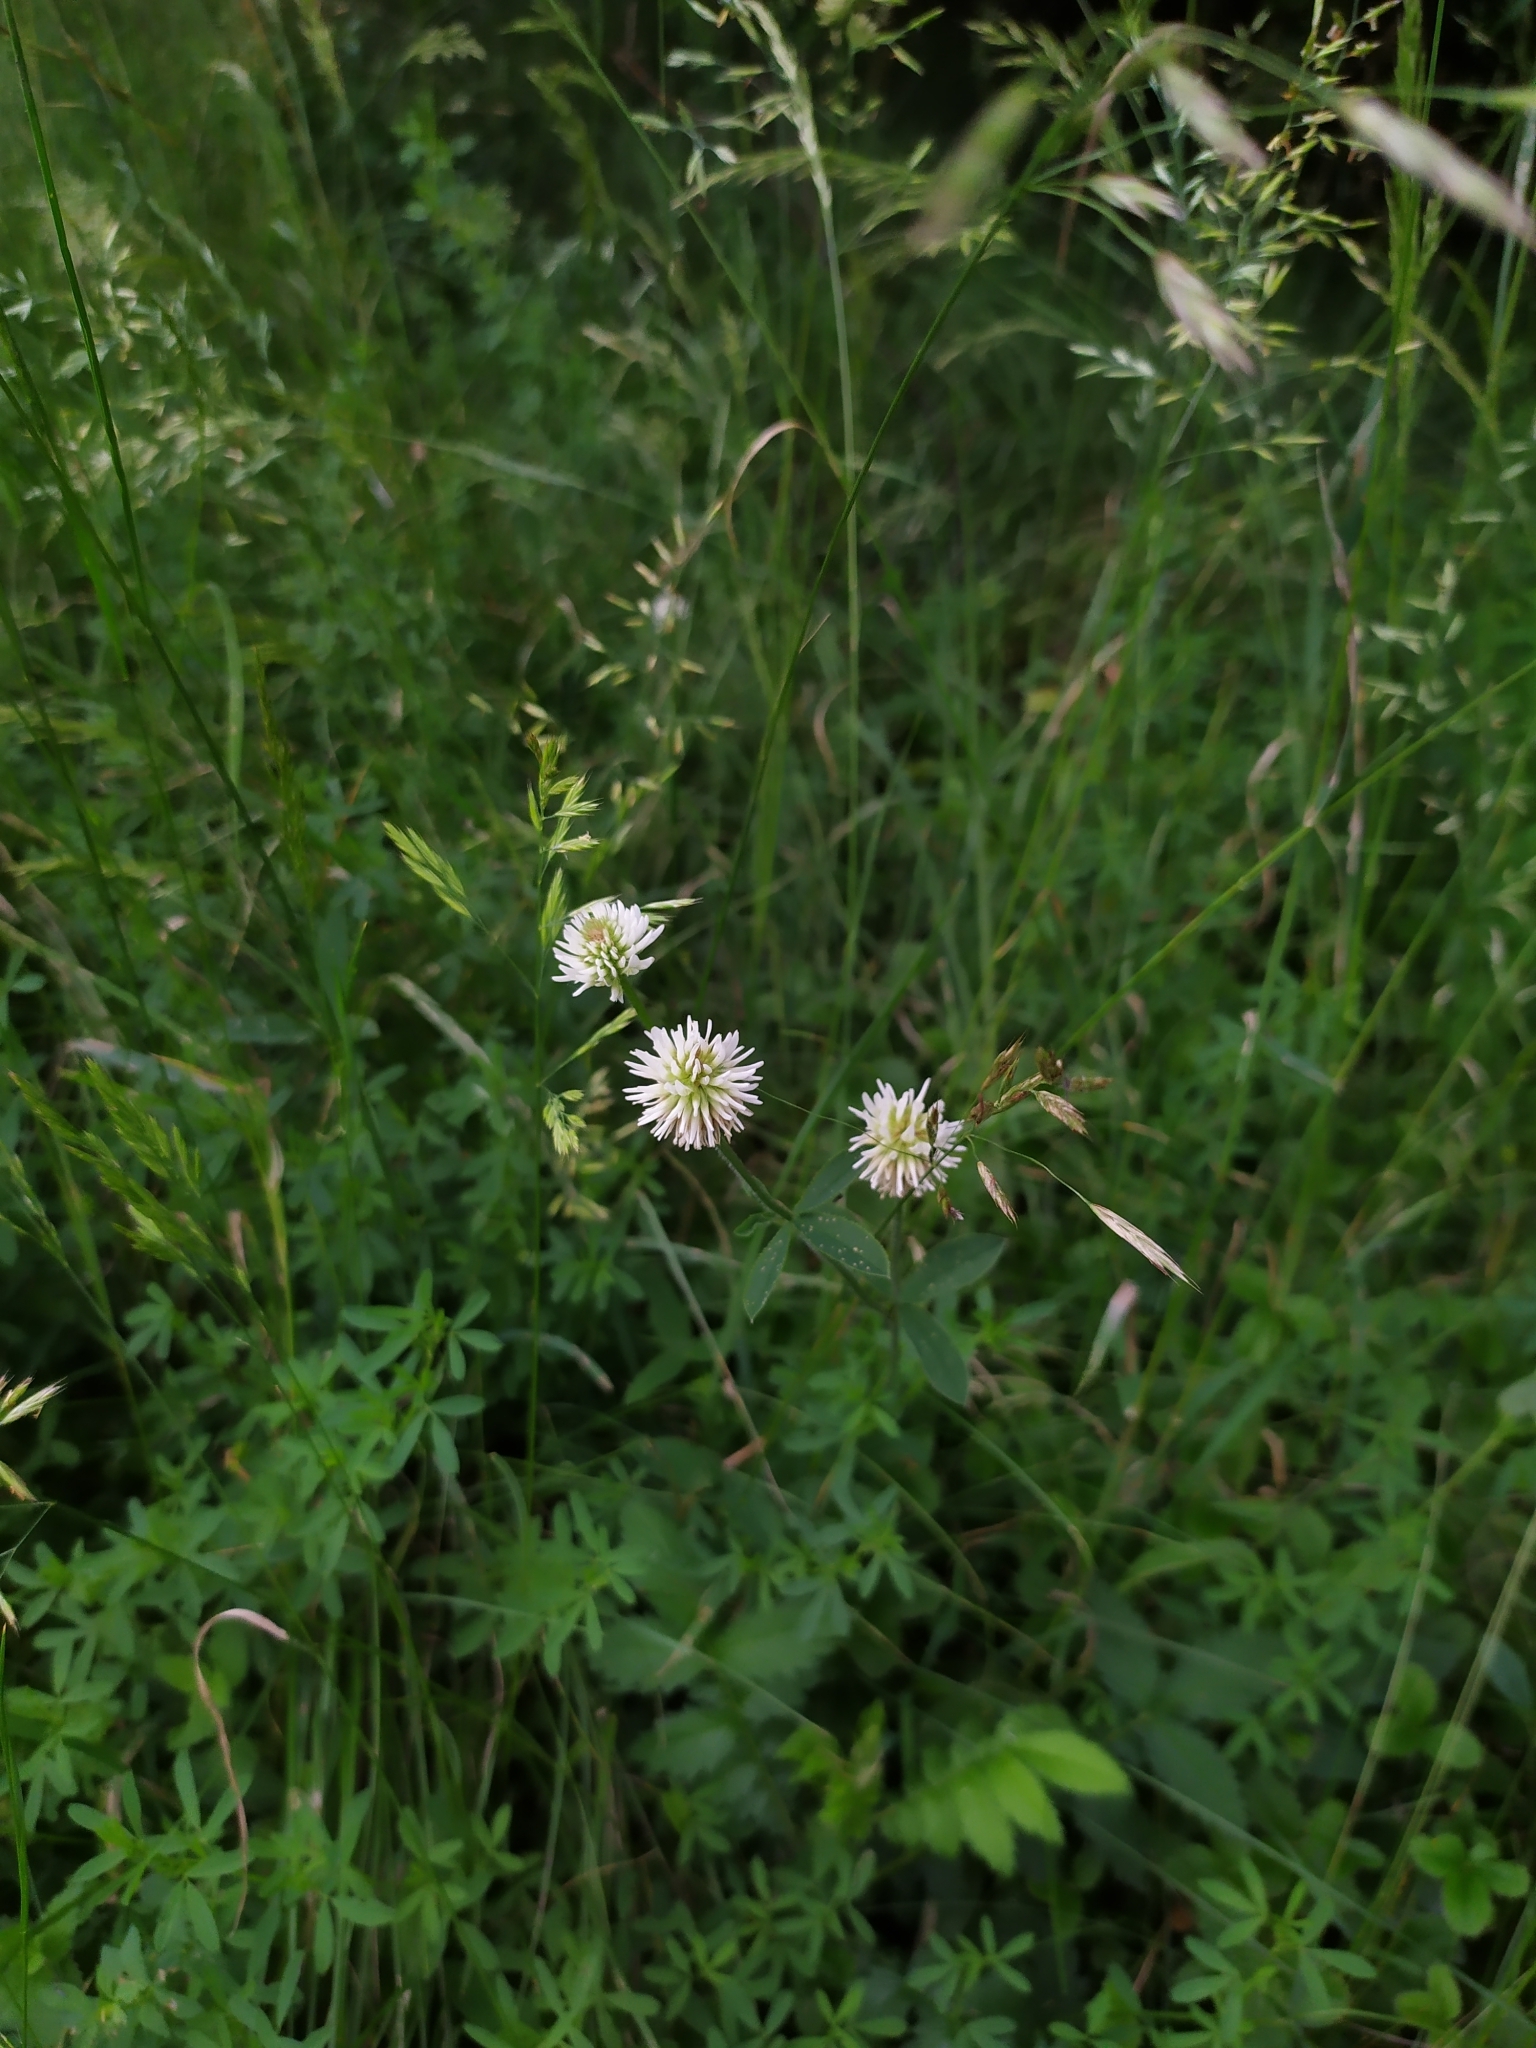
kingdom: Plantae
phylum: Tracheophyta
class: Magnoliopsida
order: Fabales
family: Fabaceae
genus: Trifolium
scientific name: Trifolium montanum
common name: Mountain clover
